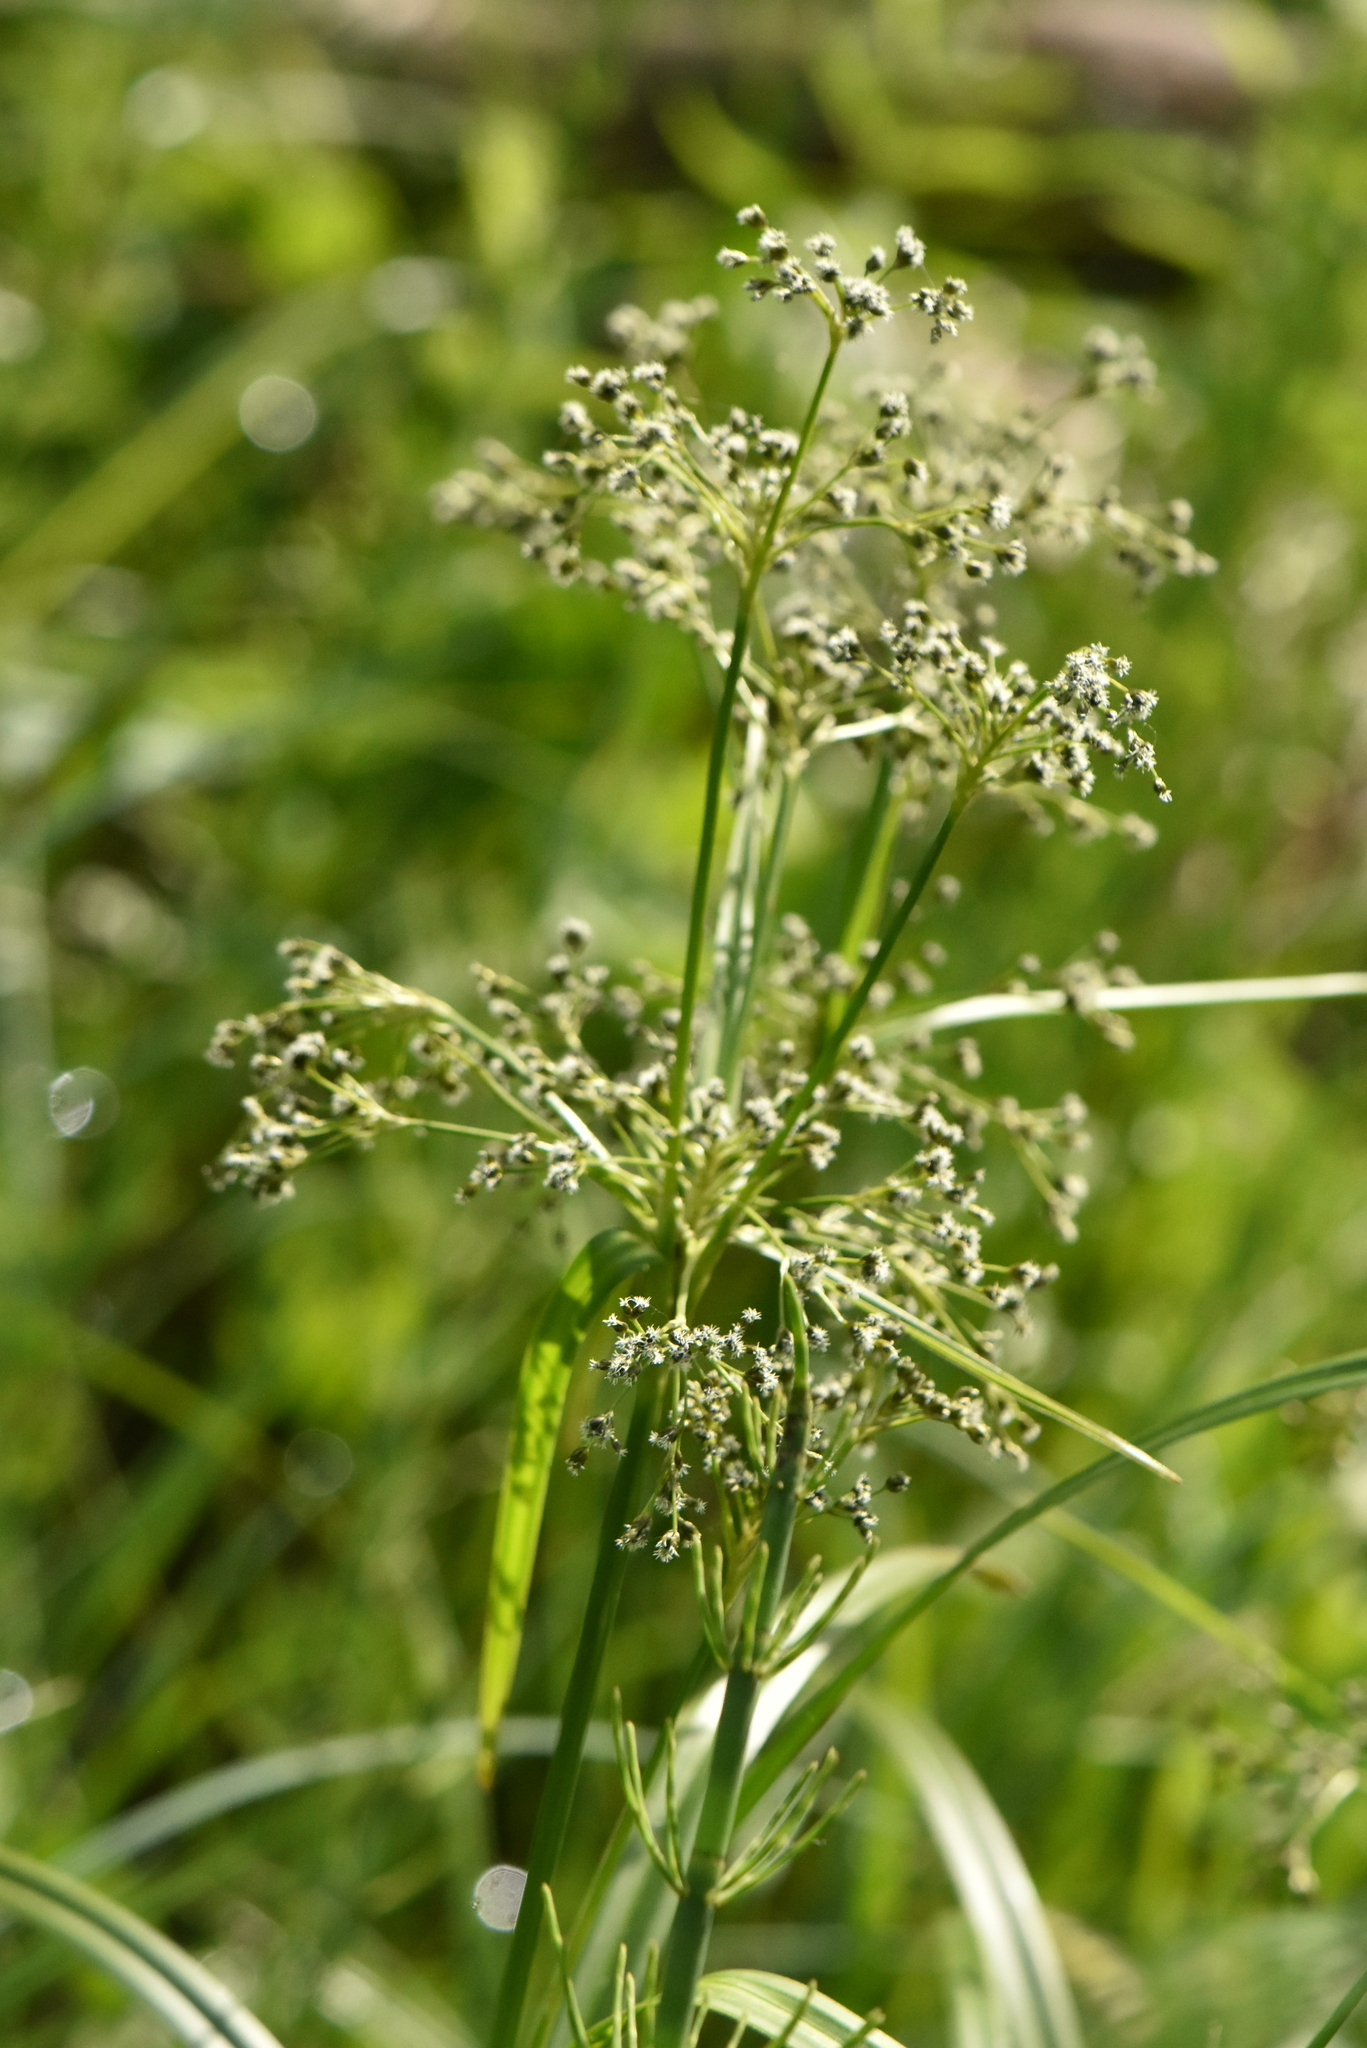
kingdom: Plantae
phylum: Tracheophyta
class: Liliopsida
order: Poales
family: Cyperaceae
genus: Scirpus
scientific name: Scirpus sylvaticus
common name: Wood club-rush
